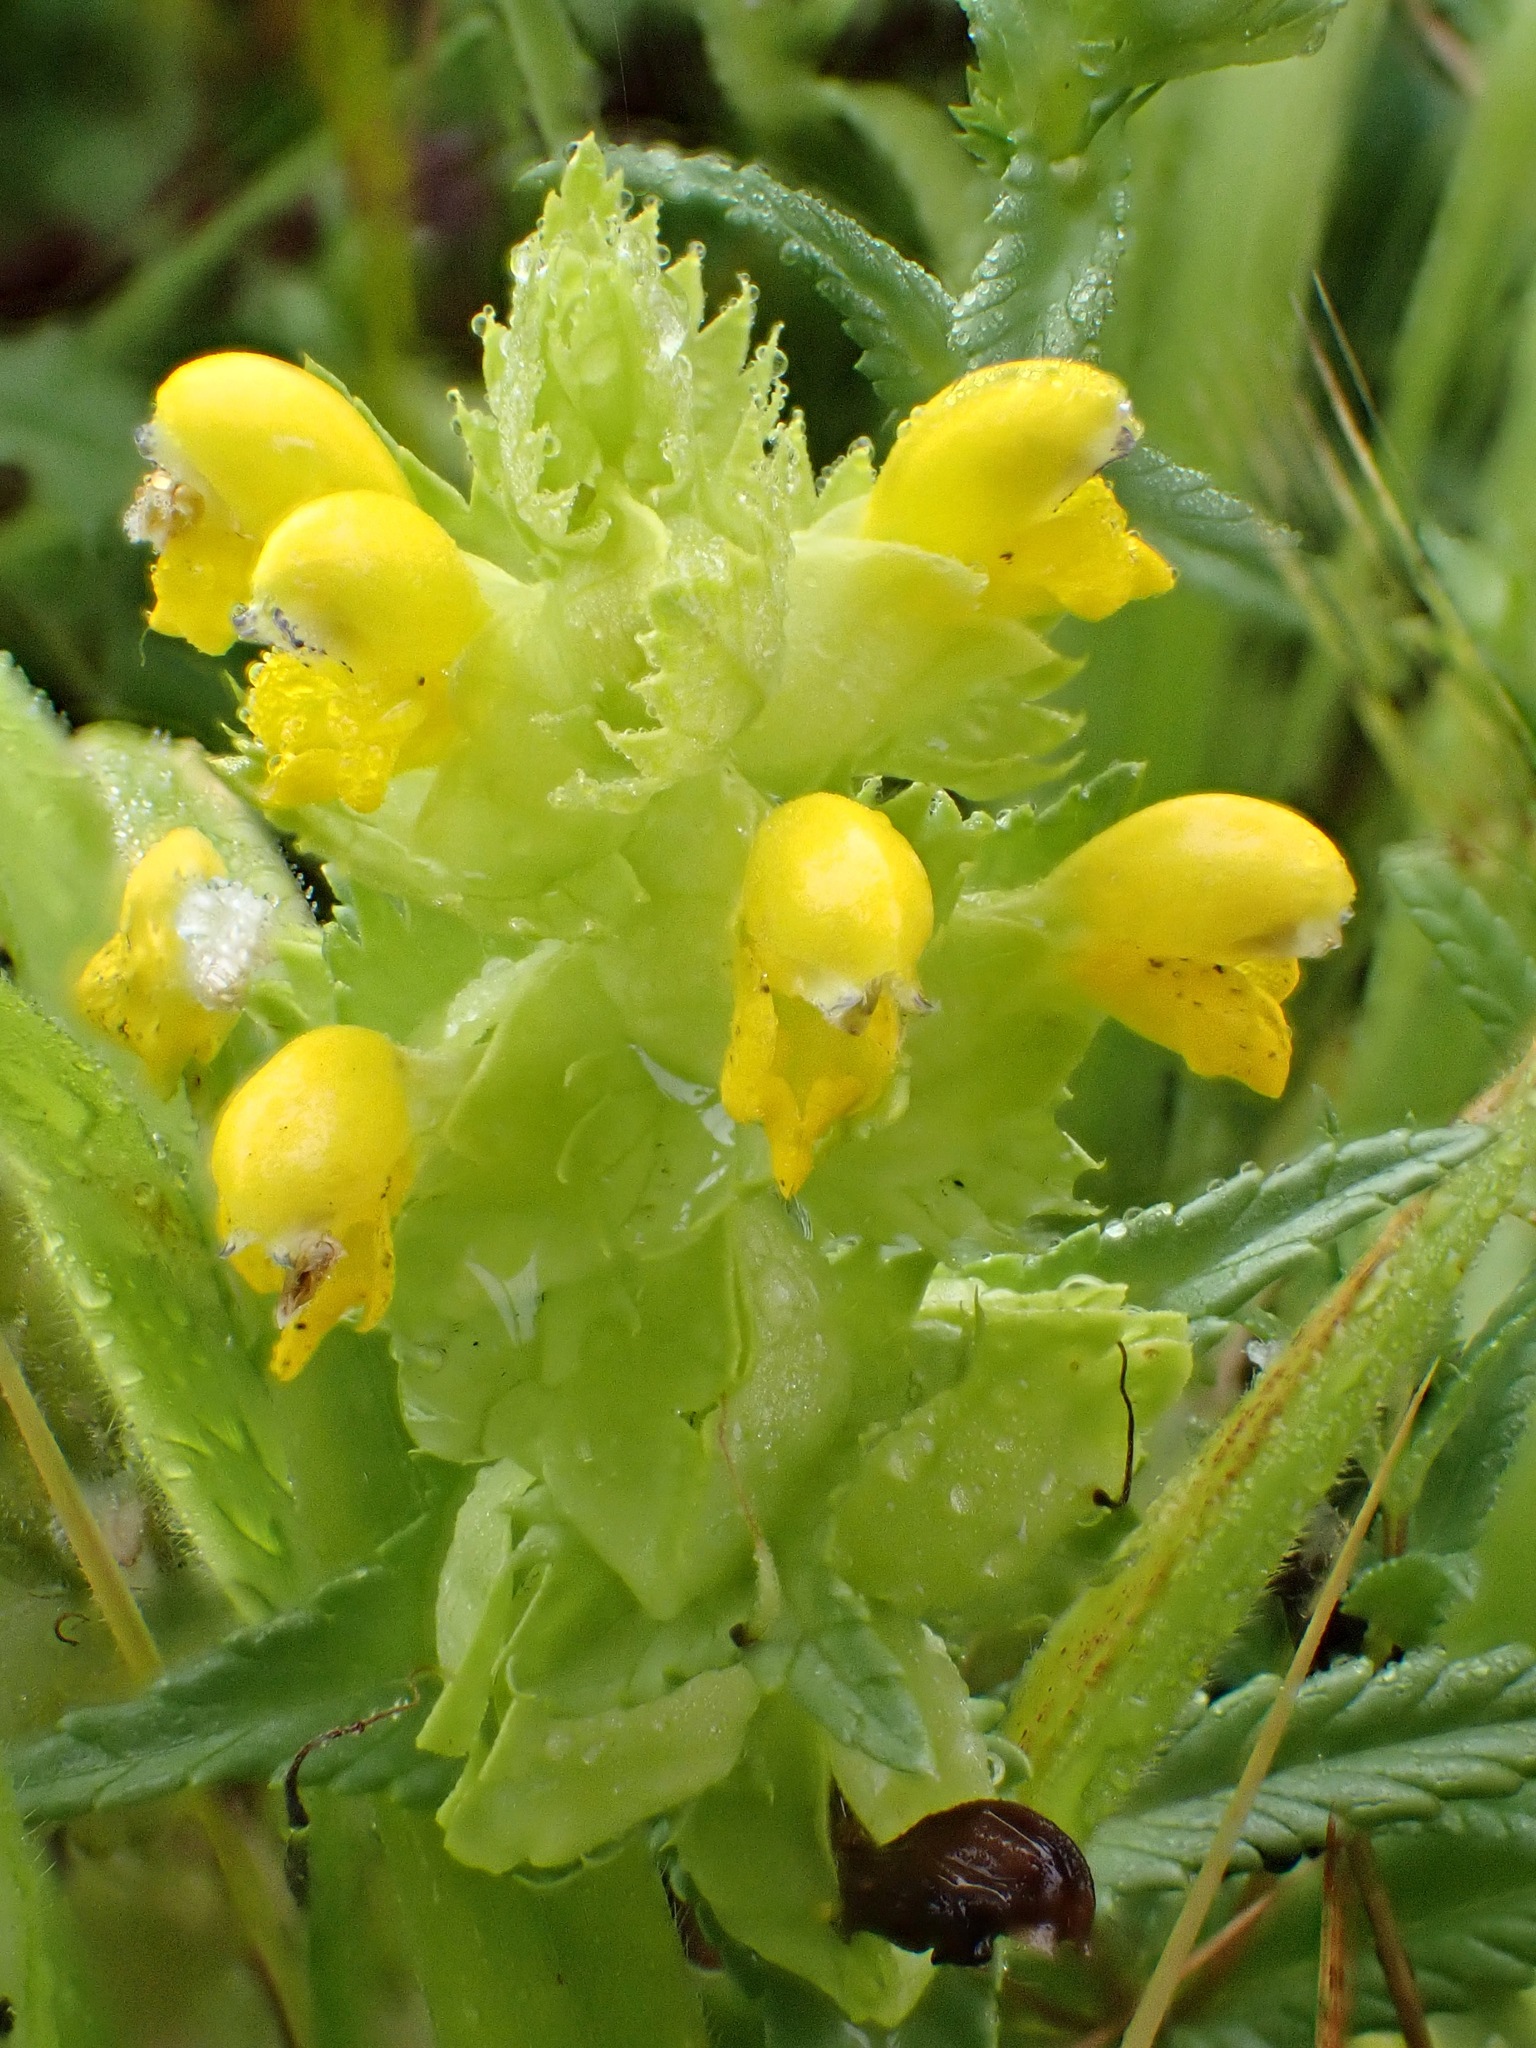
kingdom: Plantae
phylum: Tracheophyta
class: Magnoliopsida
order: Lamiales
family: Orobanchaceae
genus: Rhinanthus
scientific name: Rhinanthus minor
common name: Yellow-rattle
